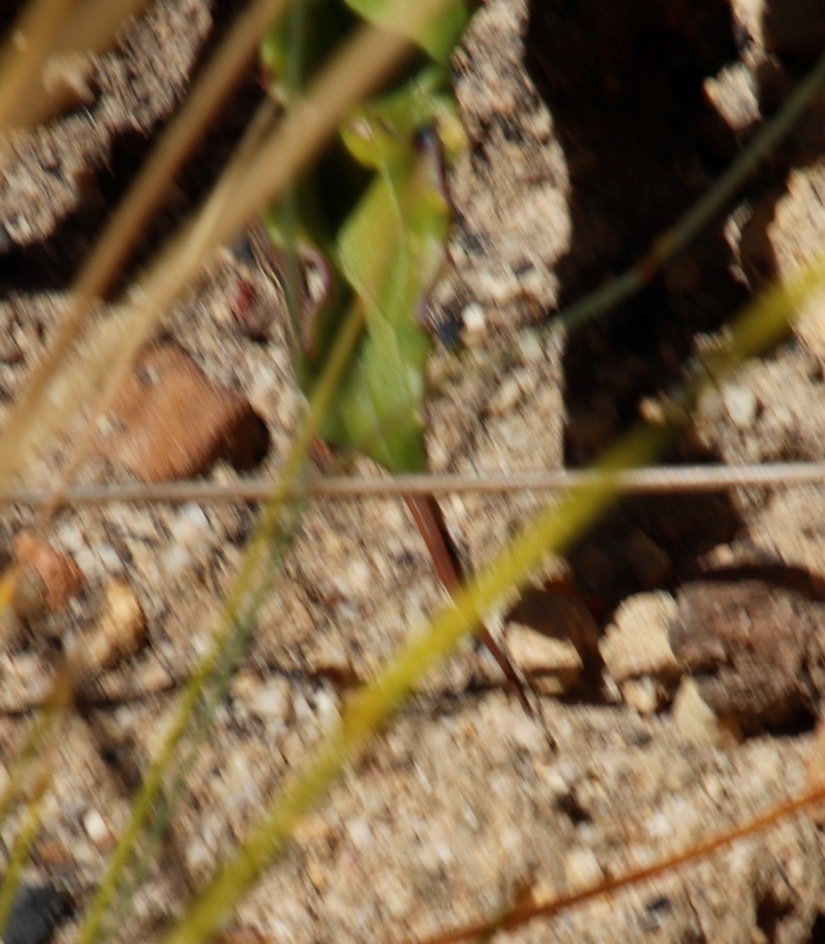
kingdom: Animalia
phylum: Chordata
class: Squamata
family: Scincidae
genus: Trachylepis
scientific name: Trachylepis homalocephala
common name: Red-sided skink
